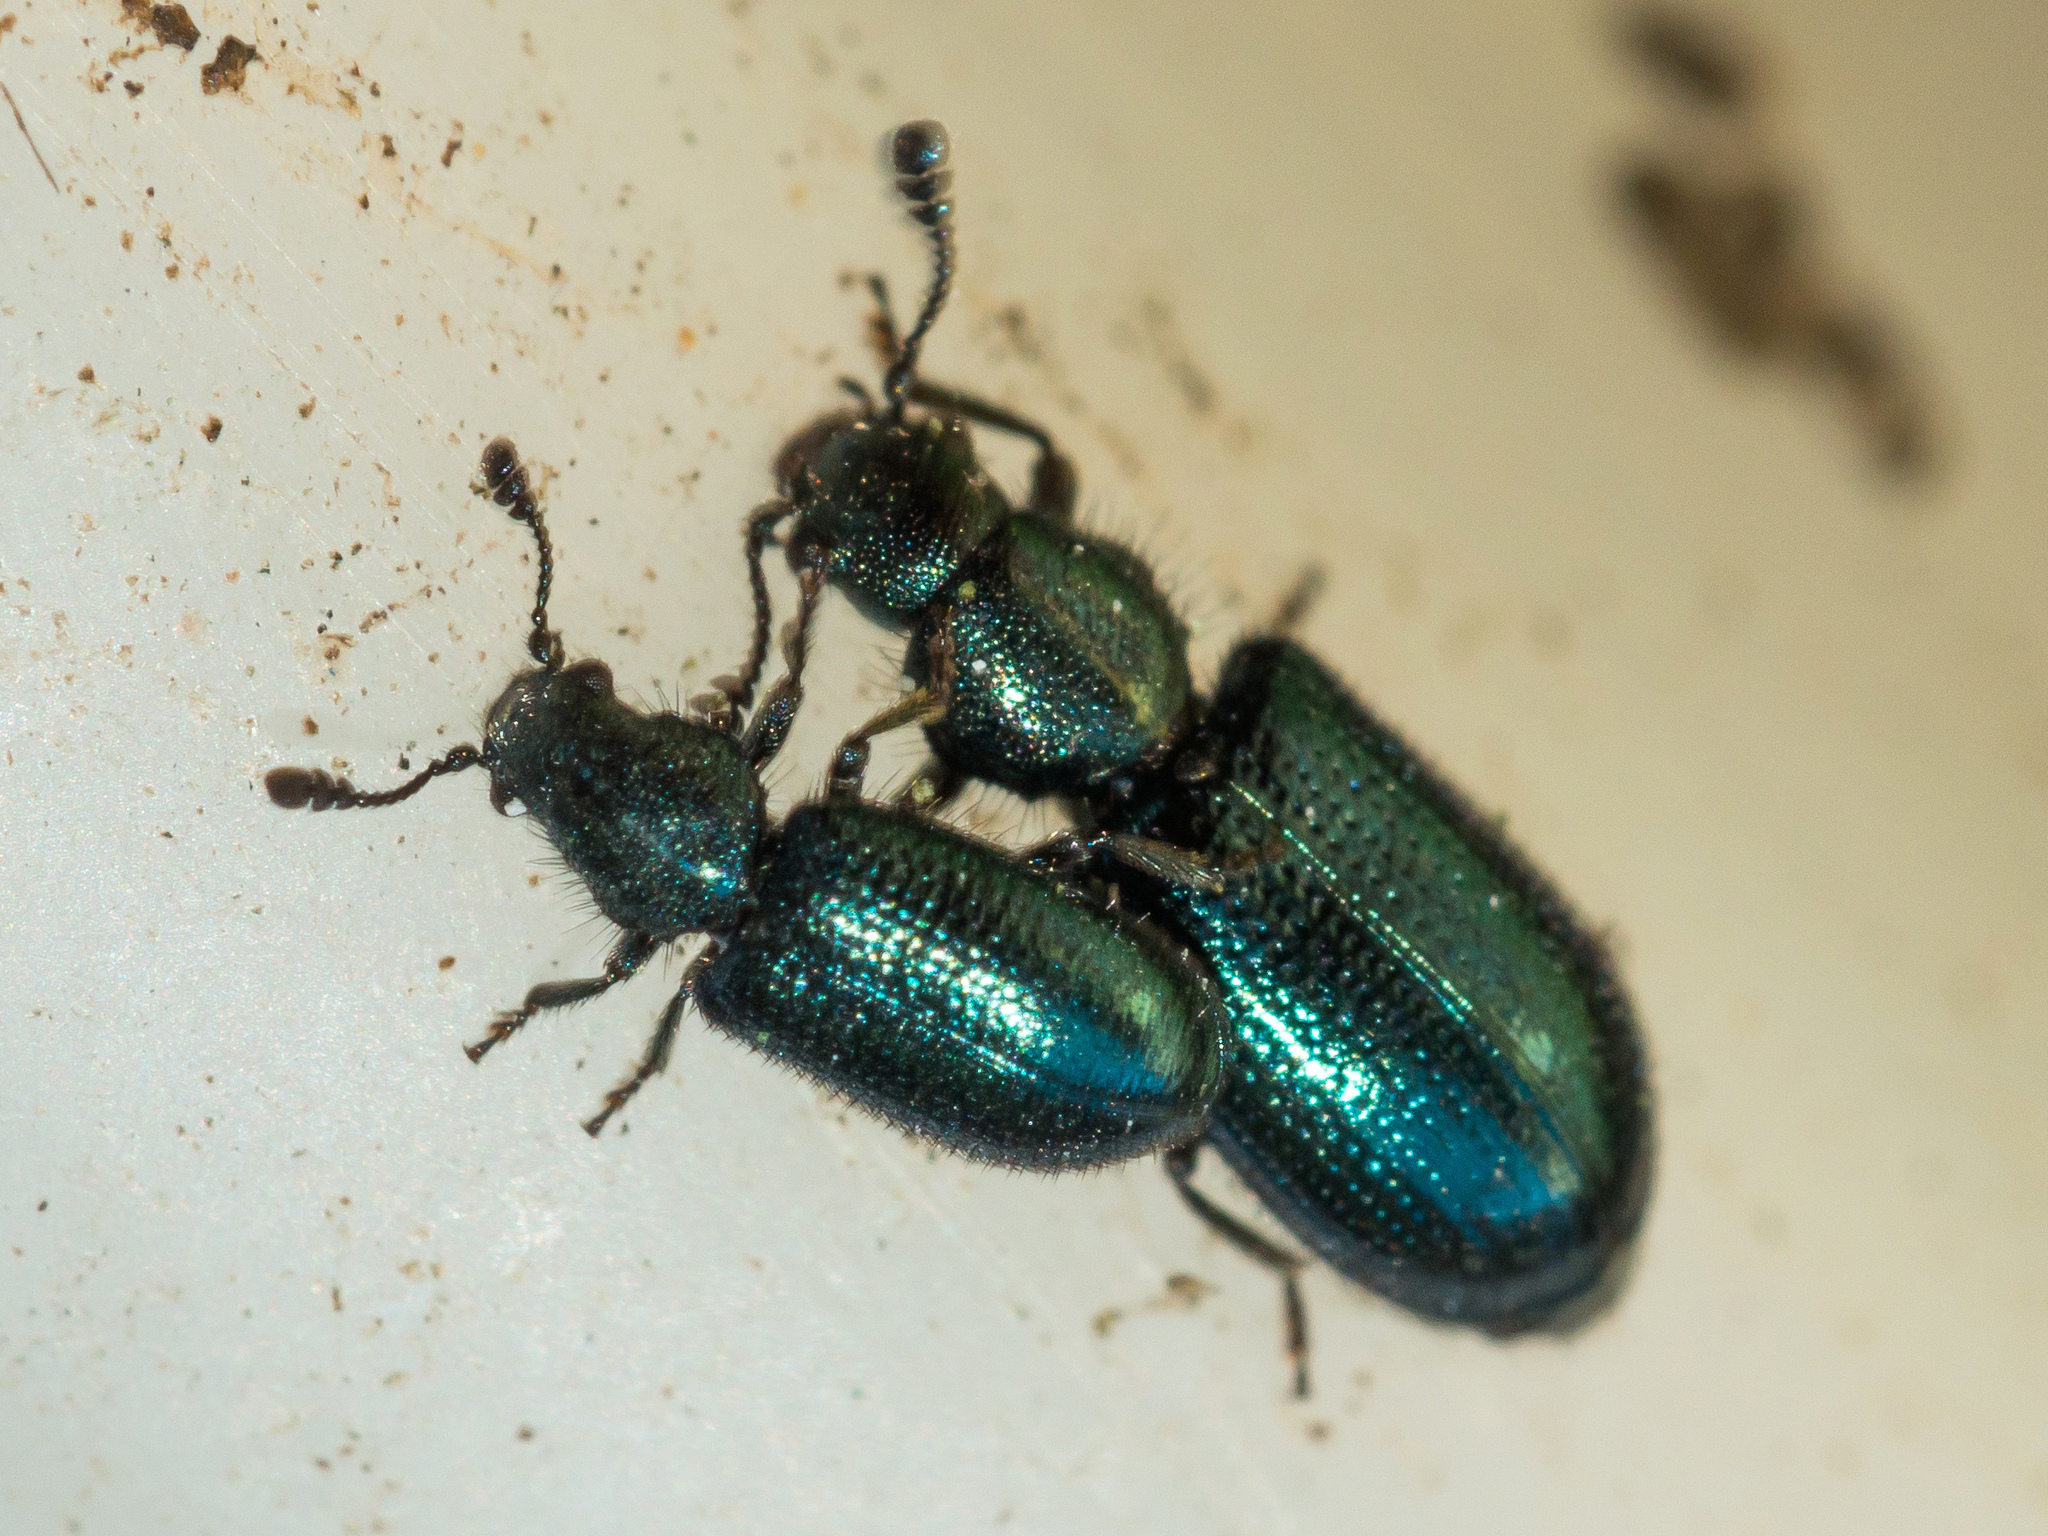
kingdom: Animalia
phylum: Arthropoda
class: Insecta
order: Coleoptera
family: Cleridae
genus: Necrobia
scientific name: Necrobia violacea
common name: Violet checkered beetle
